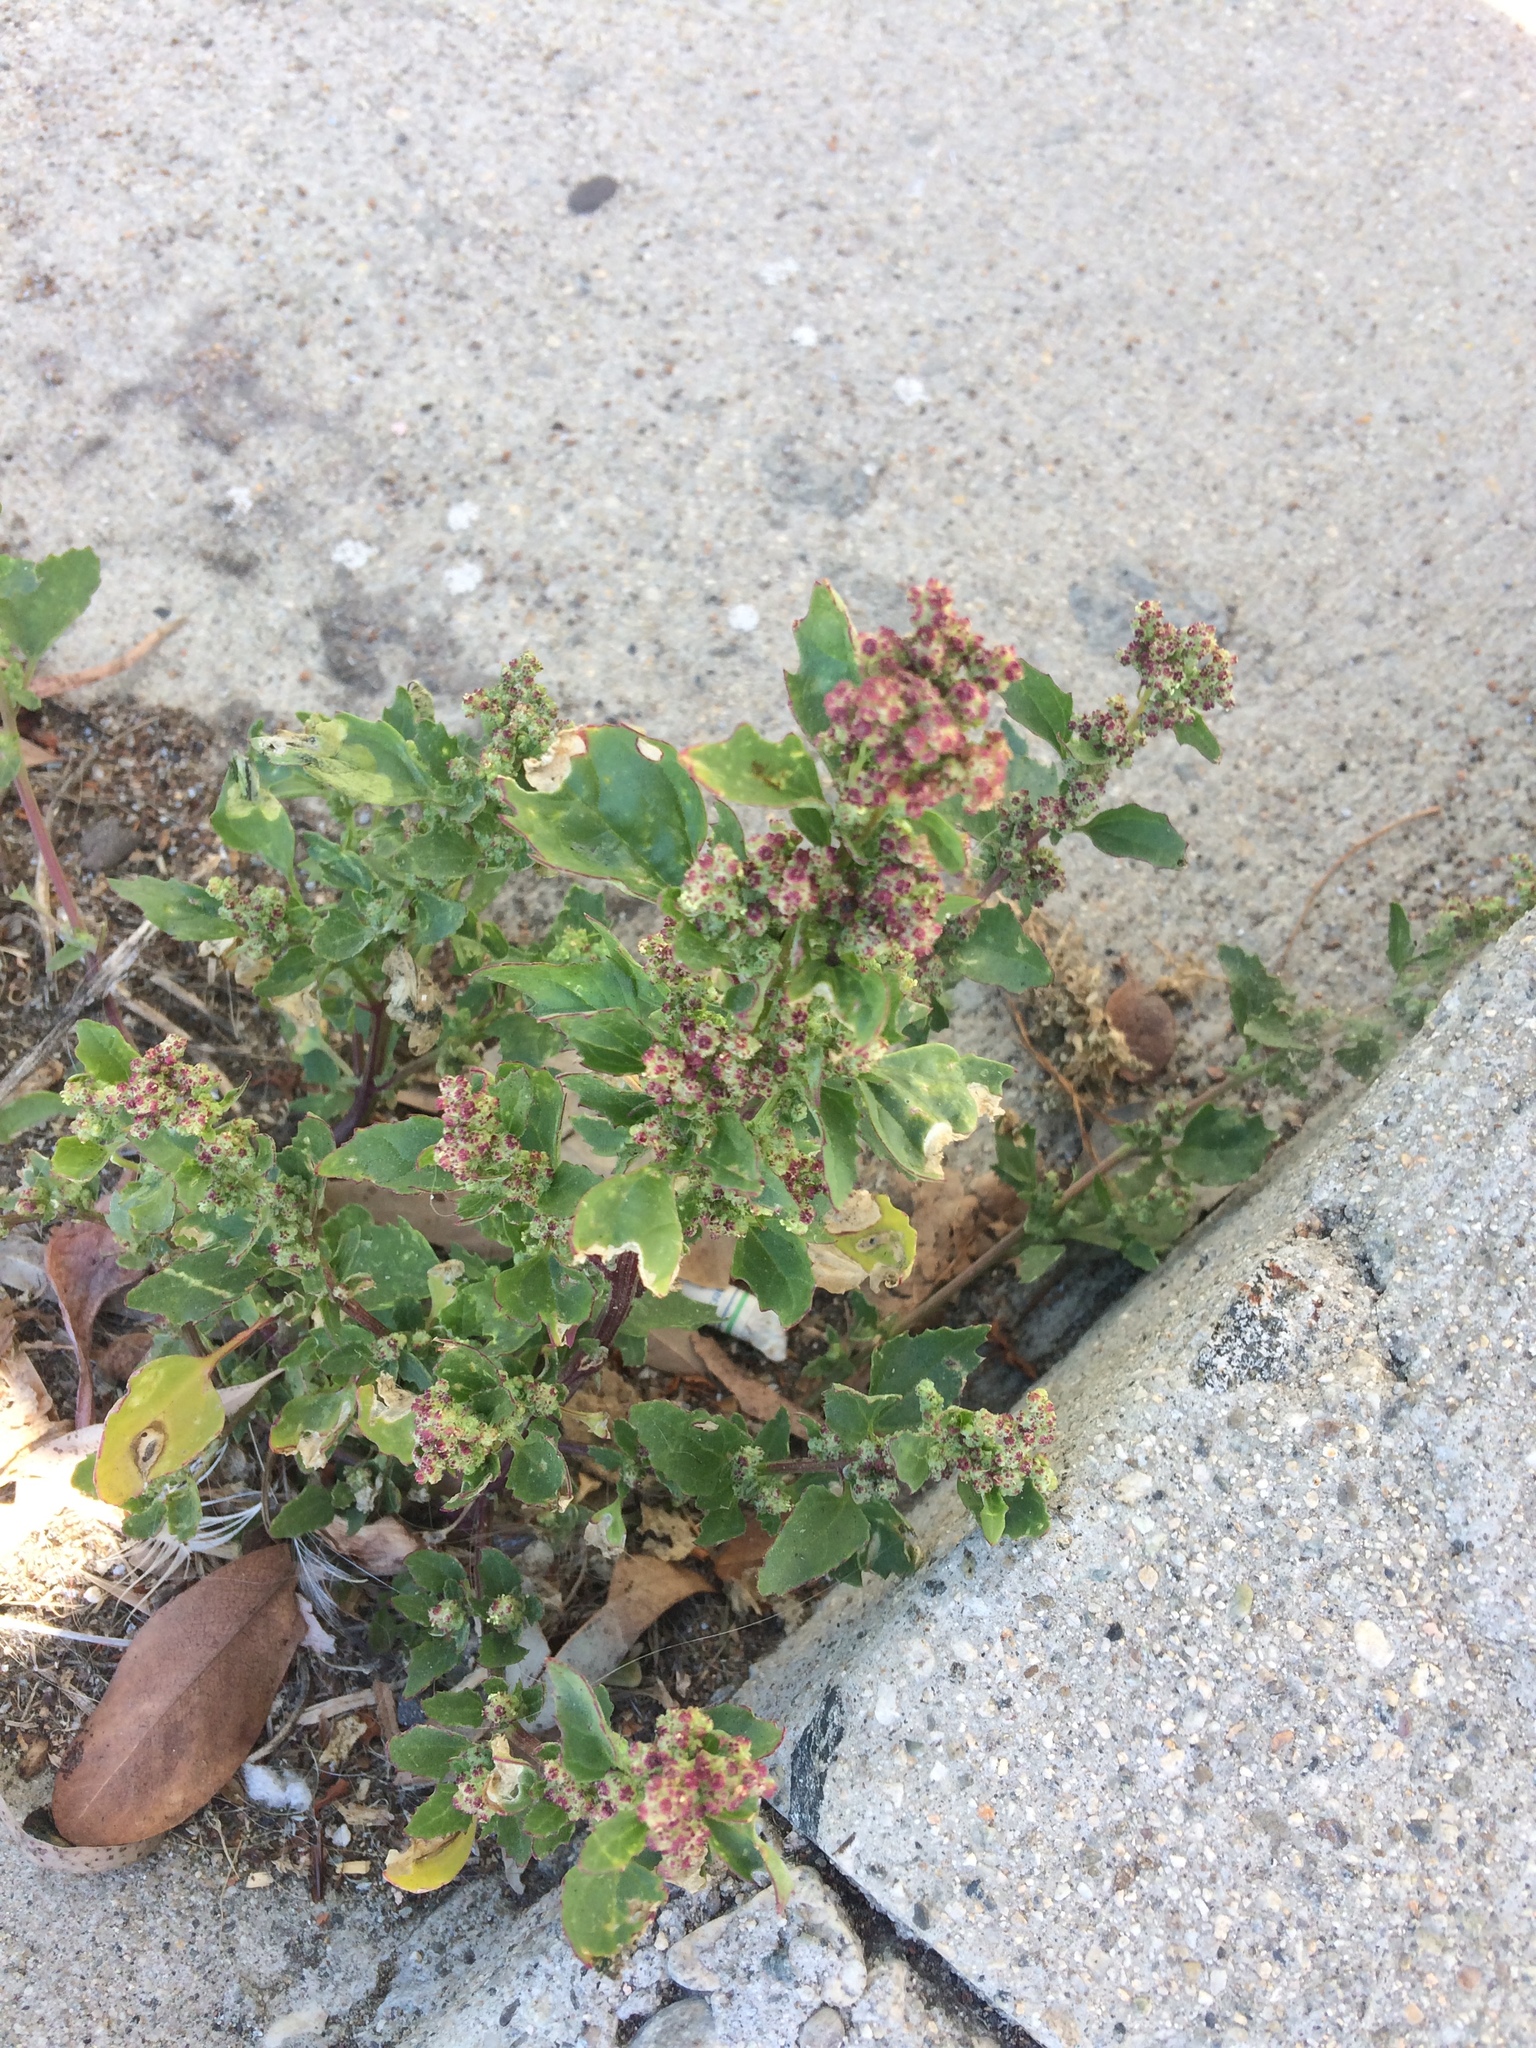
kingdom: Plantae
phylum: Tracheophyta
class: Magnoliopsida
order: Caryophyllales
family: Amaranthaceae
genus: Chenopodiastrum
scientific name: Chenopodiastrum murale
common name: Sowbane
